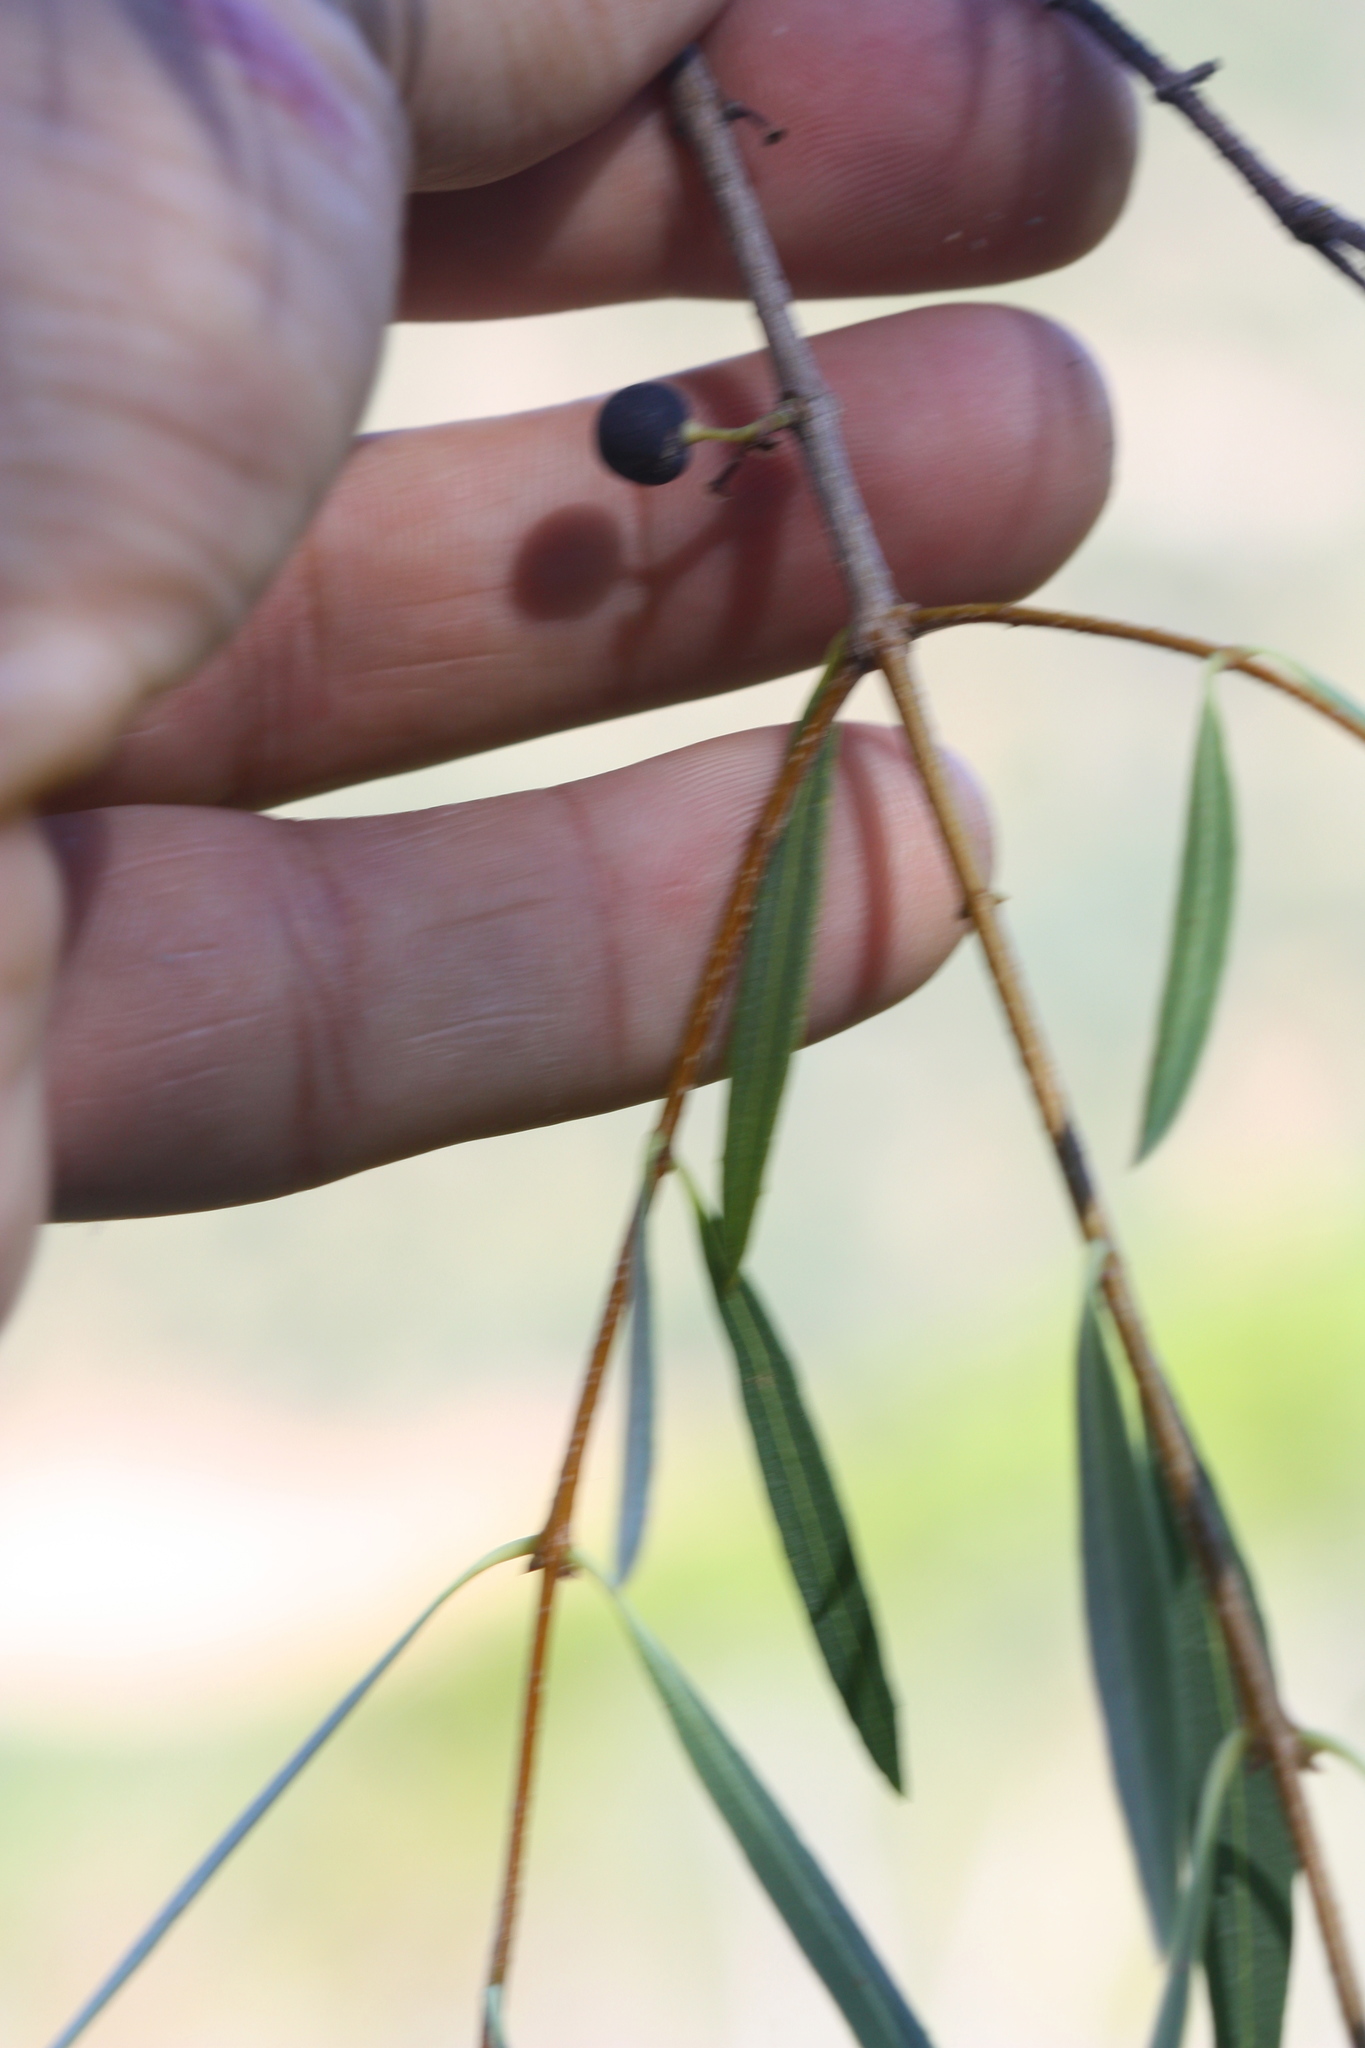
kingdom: Plantae
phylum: Tracheophyta
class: Magnoliopsida
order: Lamiales
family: Oleaceae
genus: Phillyrea
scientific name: Phillyrea angustifolia
